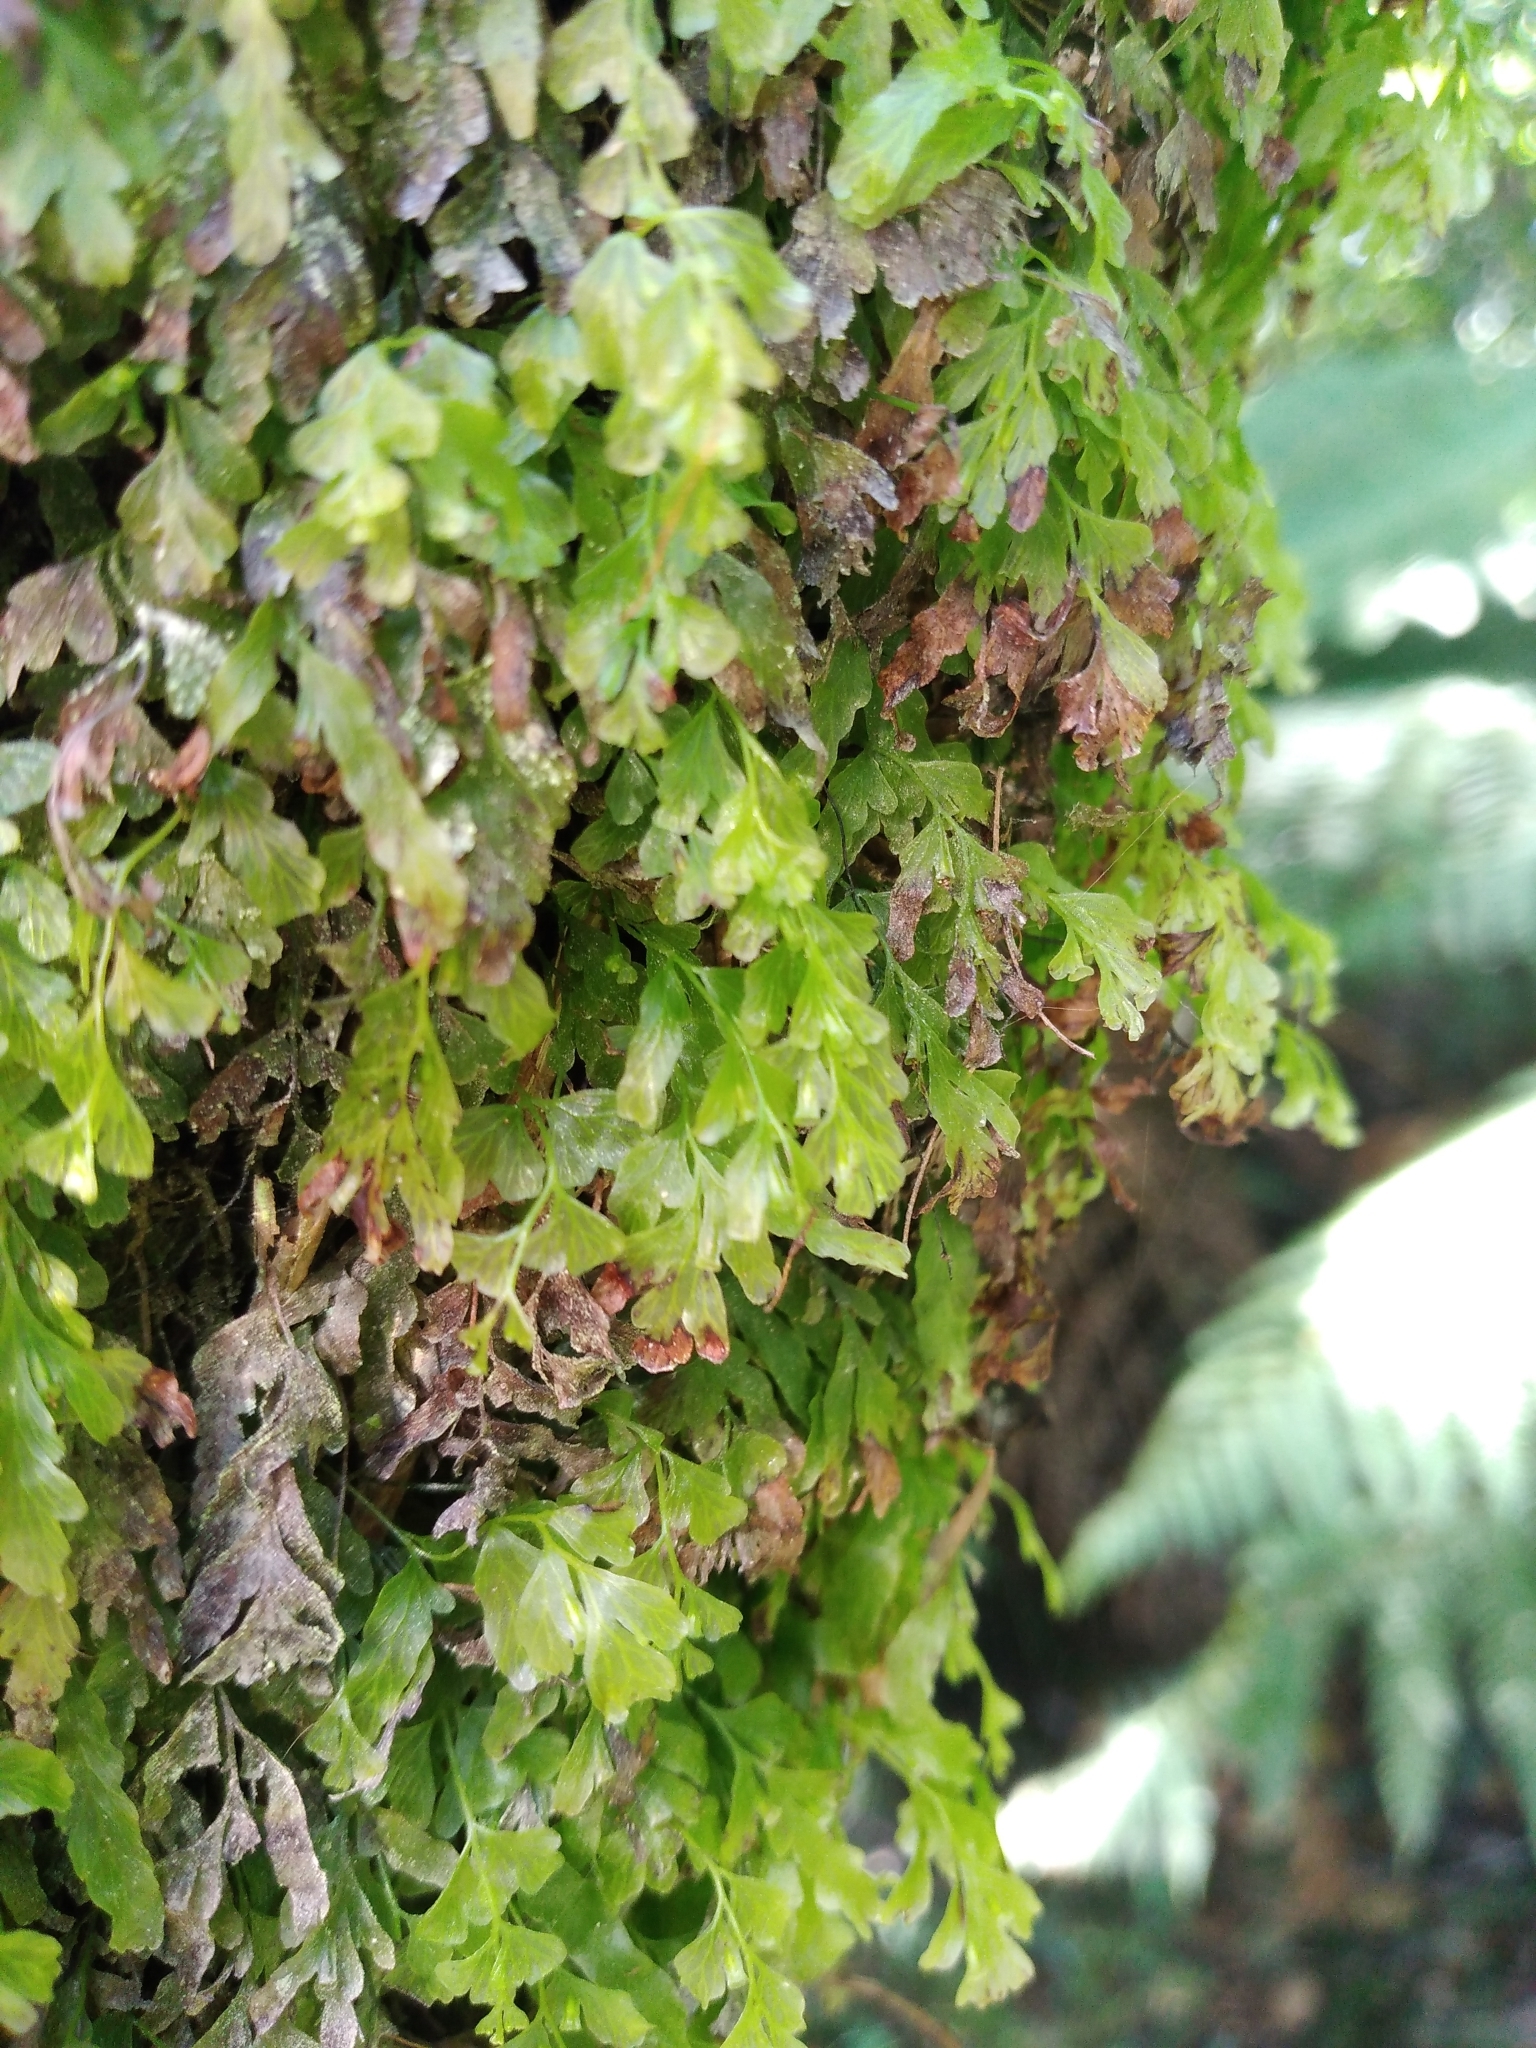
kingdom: Plantae
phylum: Tracheophyta
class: Polypodiopsida
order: Hymenophyllales
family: Hymenophyllaceae
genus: Polyphlebium
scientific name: Polyphlebium venosum
